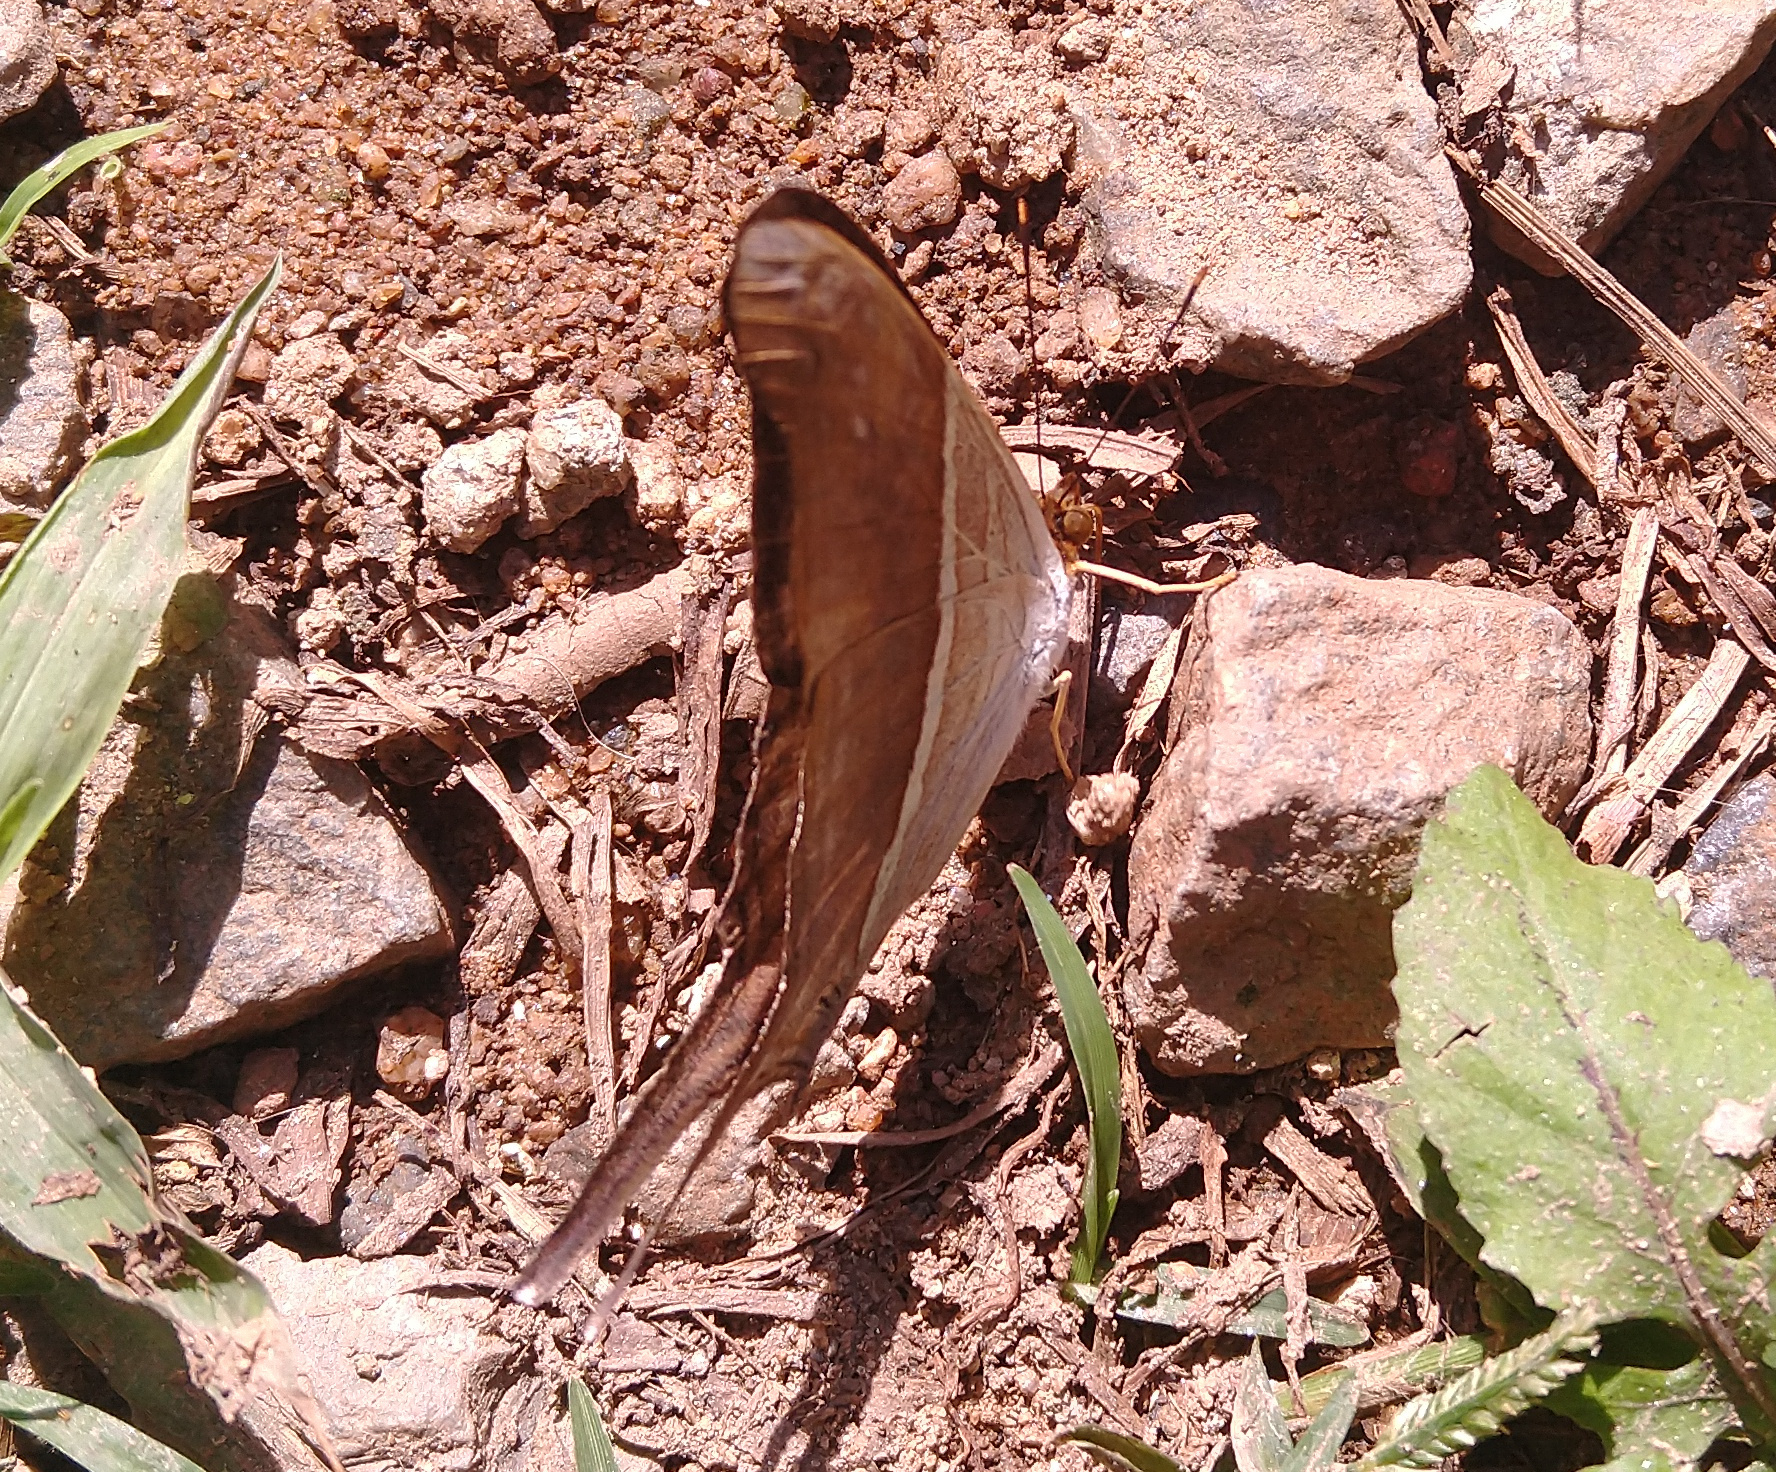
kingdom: Animalia
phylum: Arthropoda
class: Insecta
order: Lepidoptera
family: Nymphalidae
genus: Marpesia
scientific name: Marpesia chiron
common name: Many-banded daggerwing
